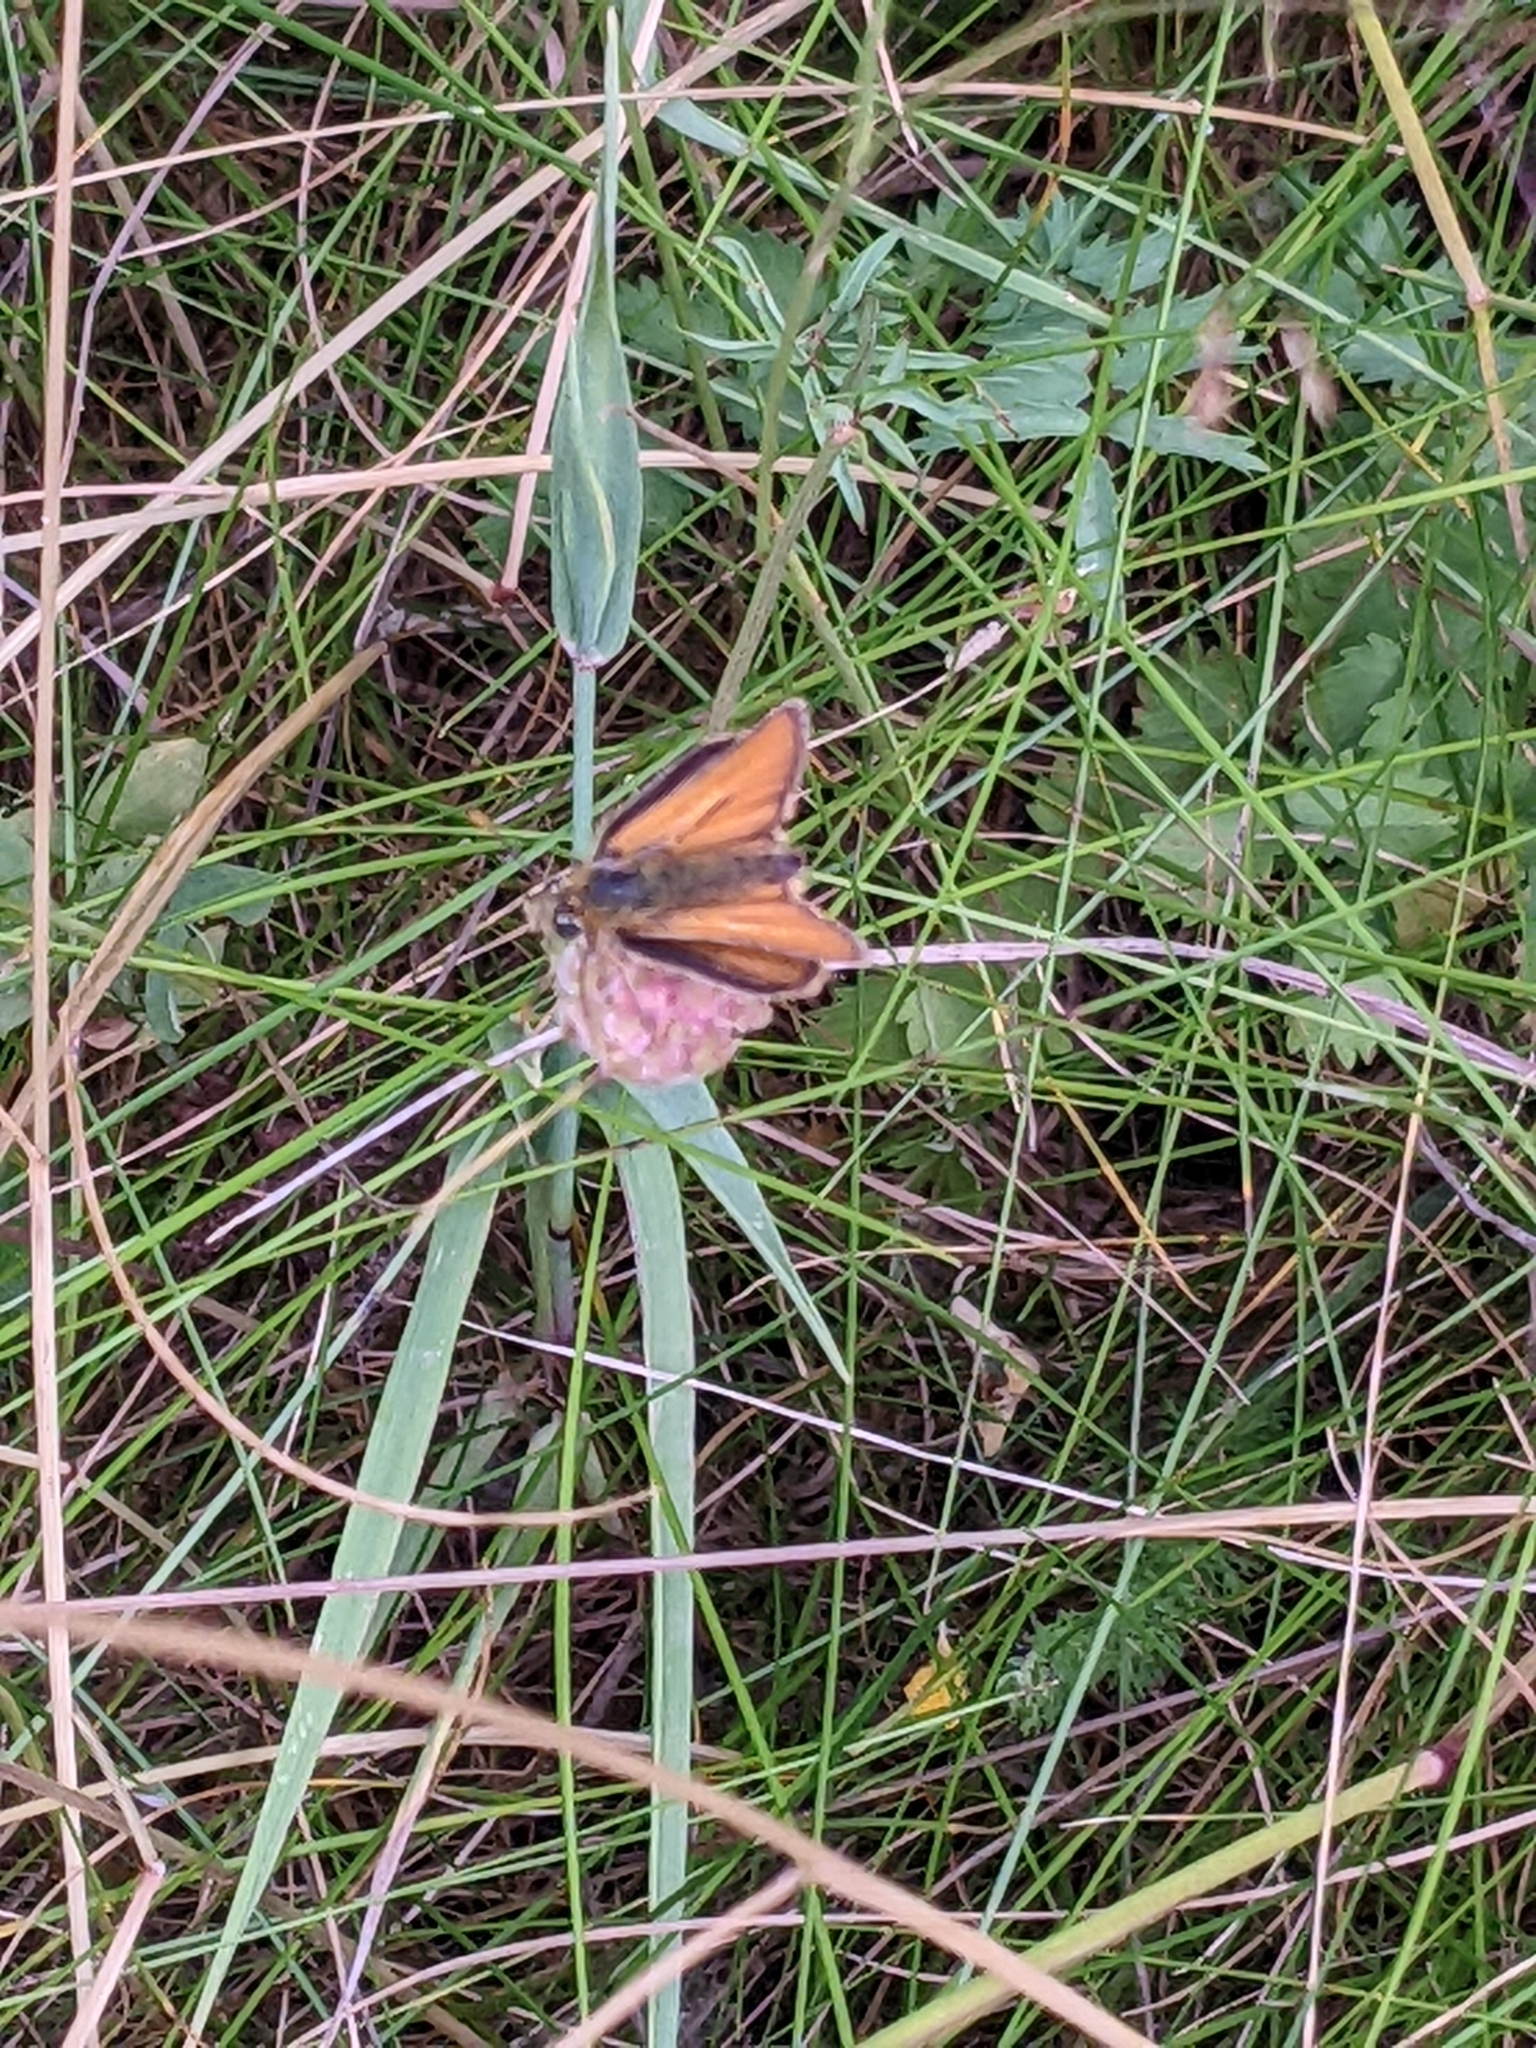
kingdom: Animalia
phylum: Arthropoda
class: Insecta
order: Lepidoptera
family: Hesperiidae
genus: Thymelicus
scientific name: Thymelicus sylvestris
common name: Small skipper
